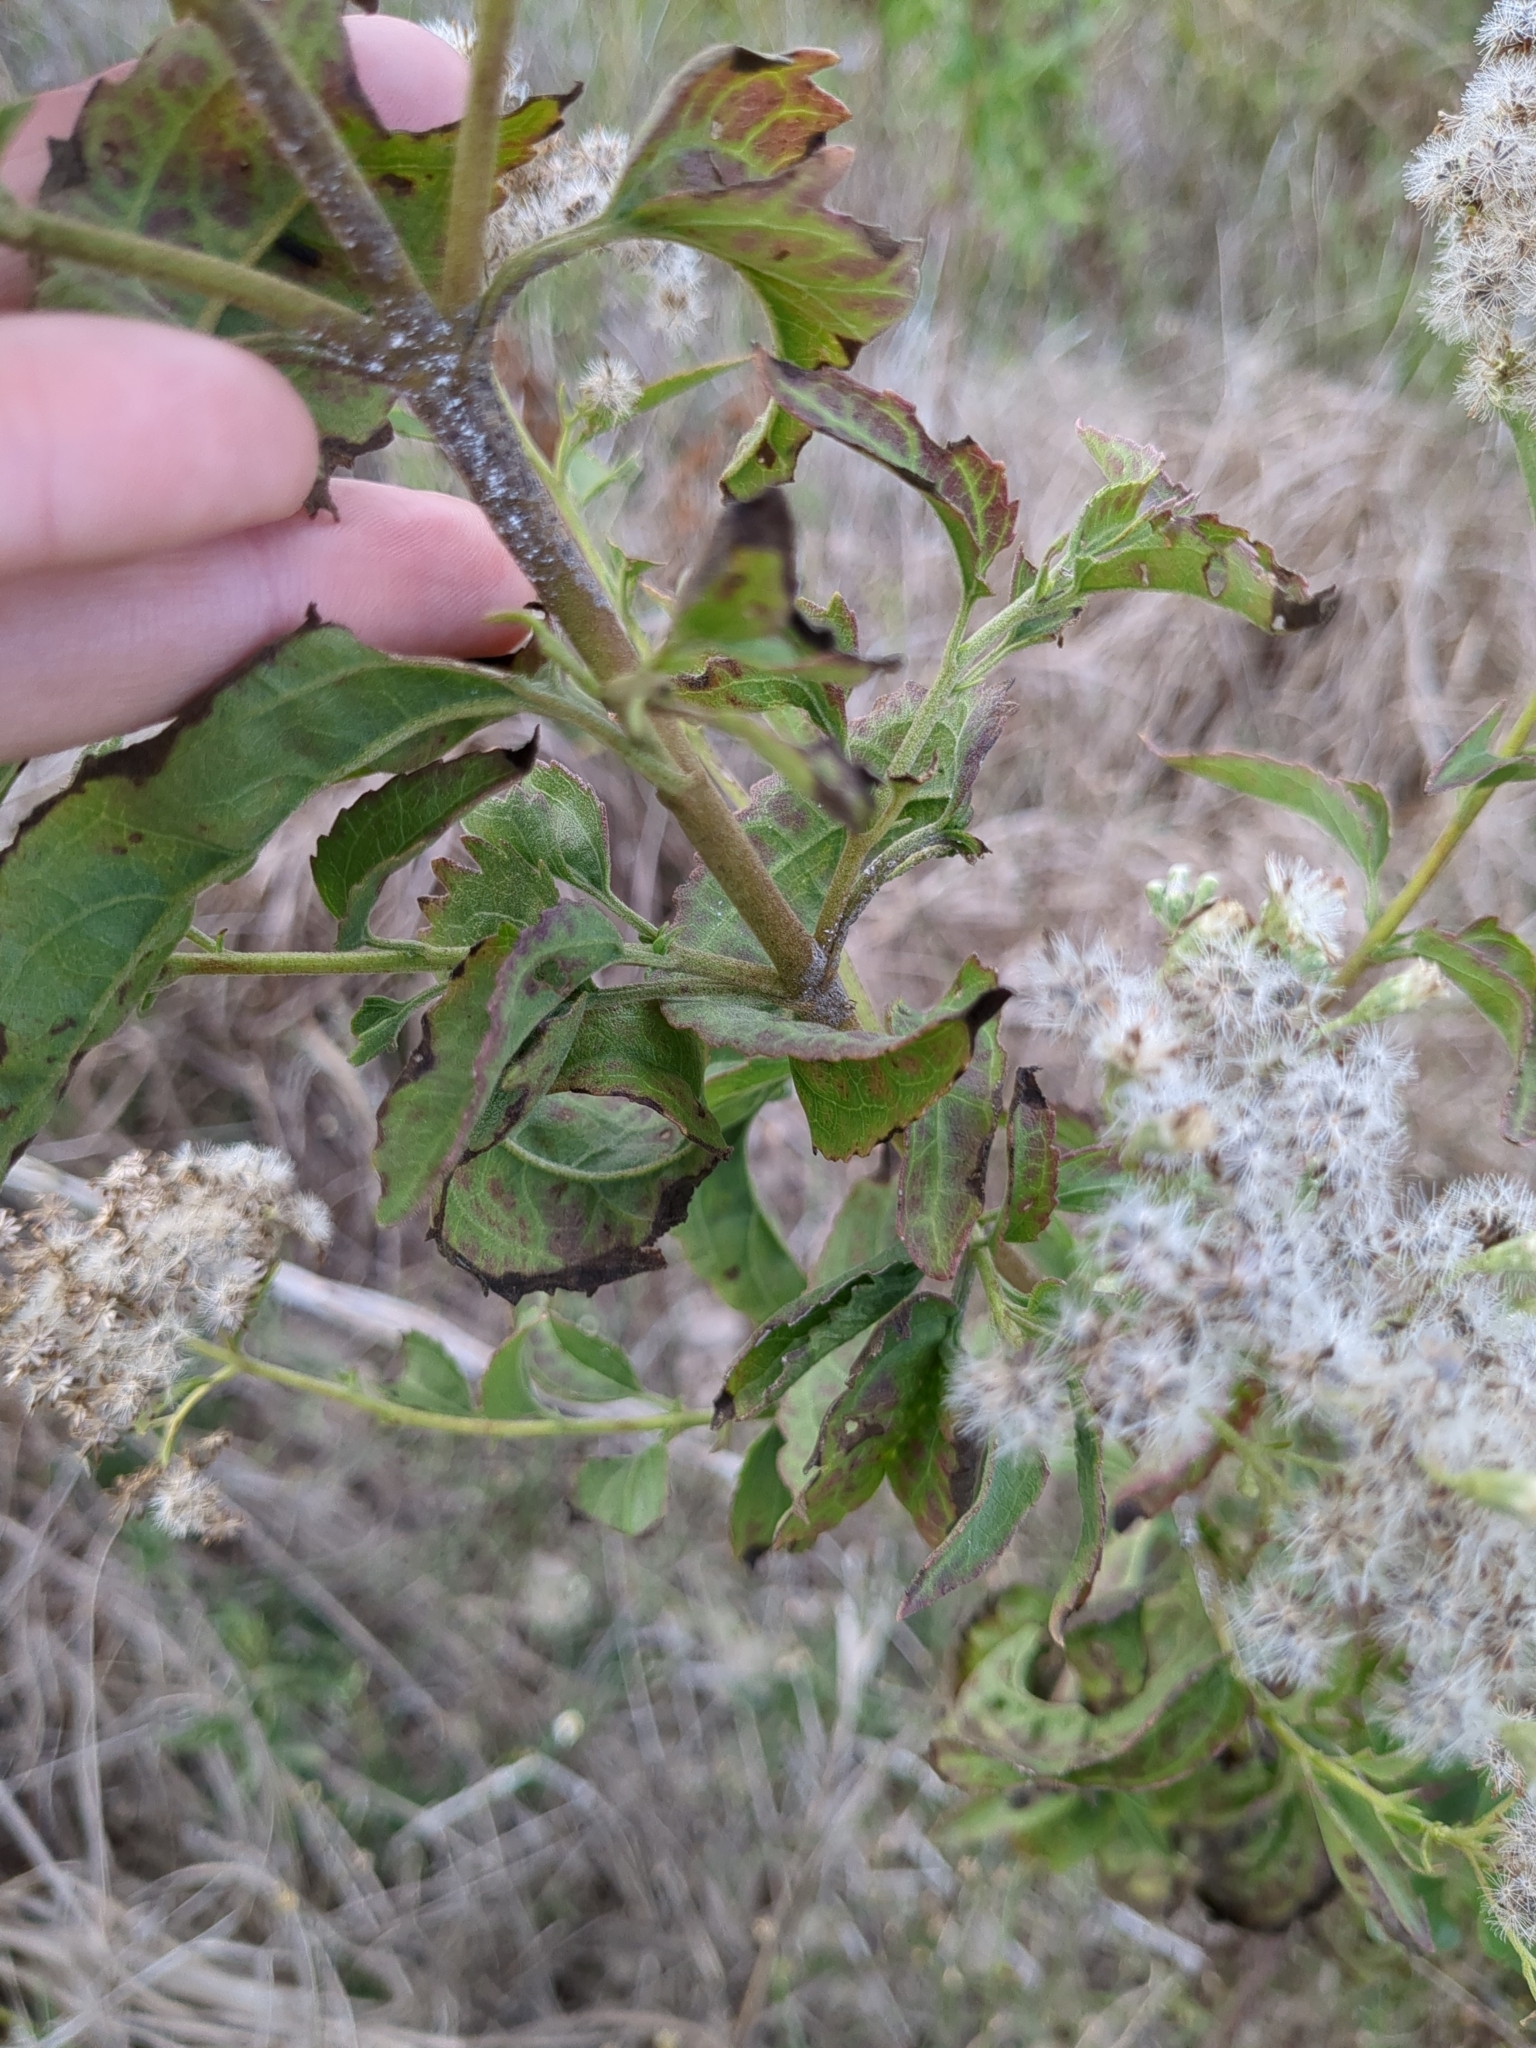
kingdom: Plantae
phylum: Tracheophyta
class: Magnoliopsida
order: Asterales
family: Asteraceae
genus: Eupatorium
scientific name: Eupatorium serotinum
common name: Late boneset
